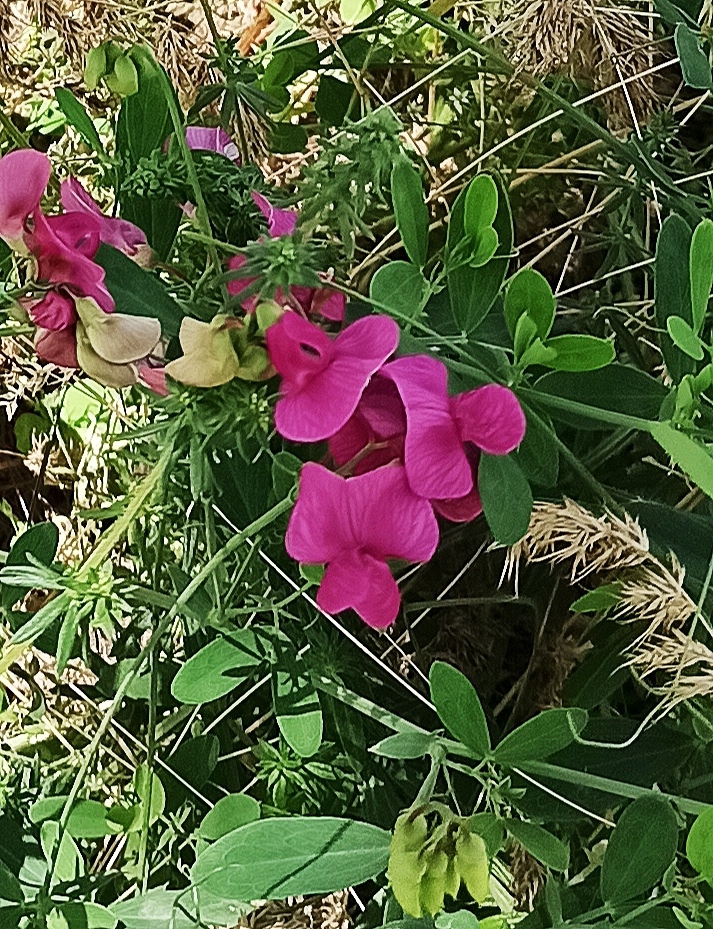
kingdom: Plantae
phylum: Tracheophyta
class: Magnoliopsida
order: Fabales
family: Fabaceae
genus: Lathyrus
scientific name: Lathyrus tuberosus
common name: Tuberous pea
